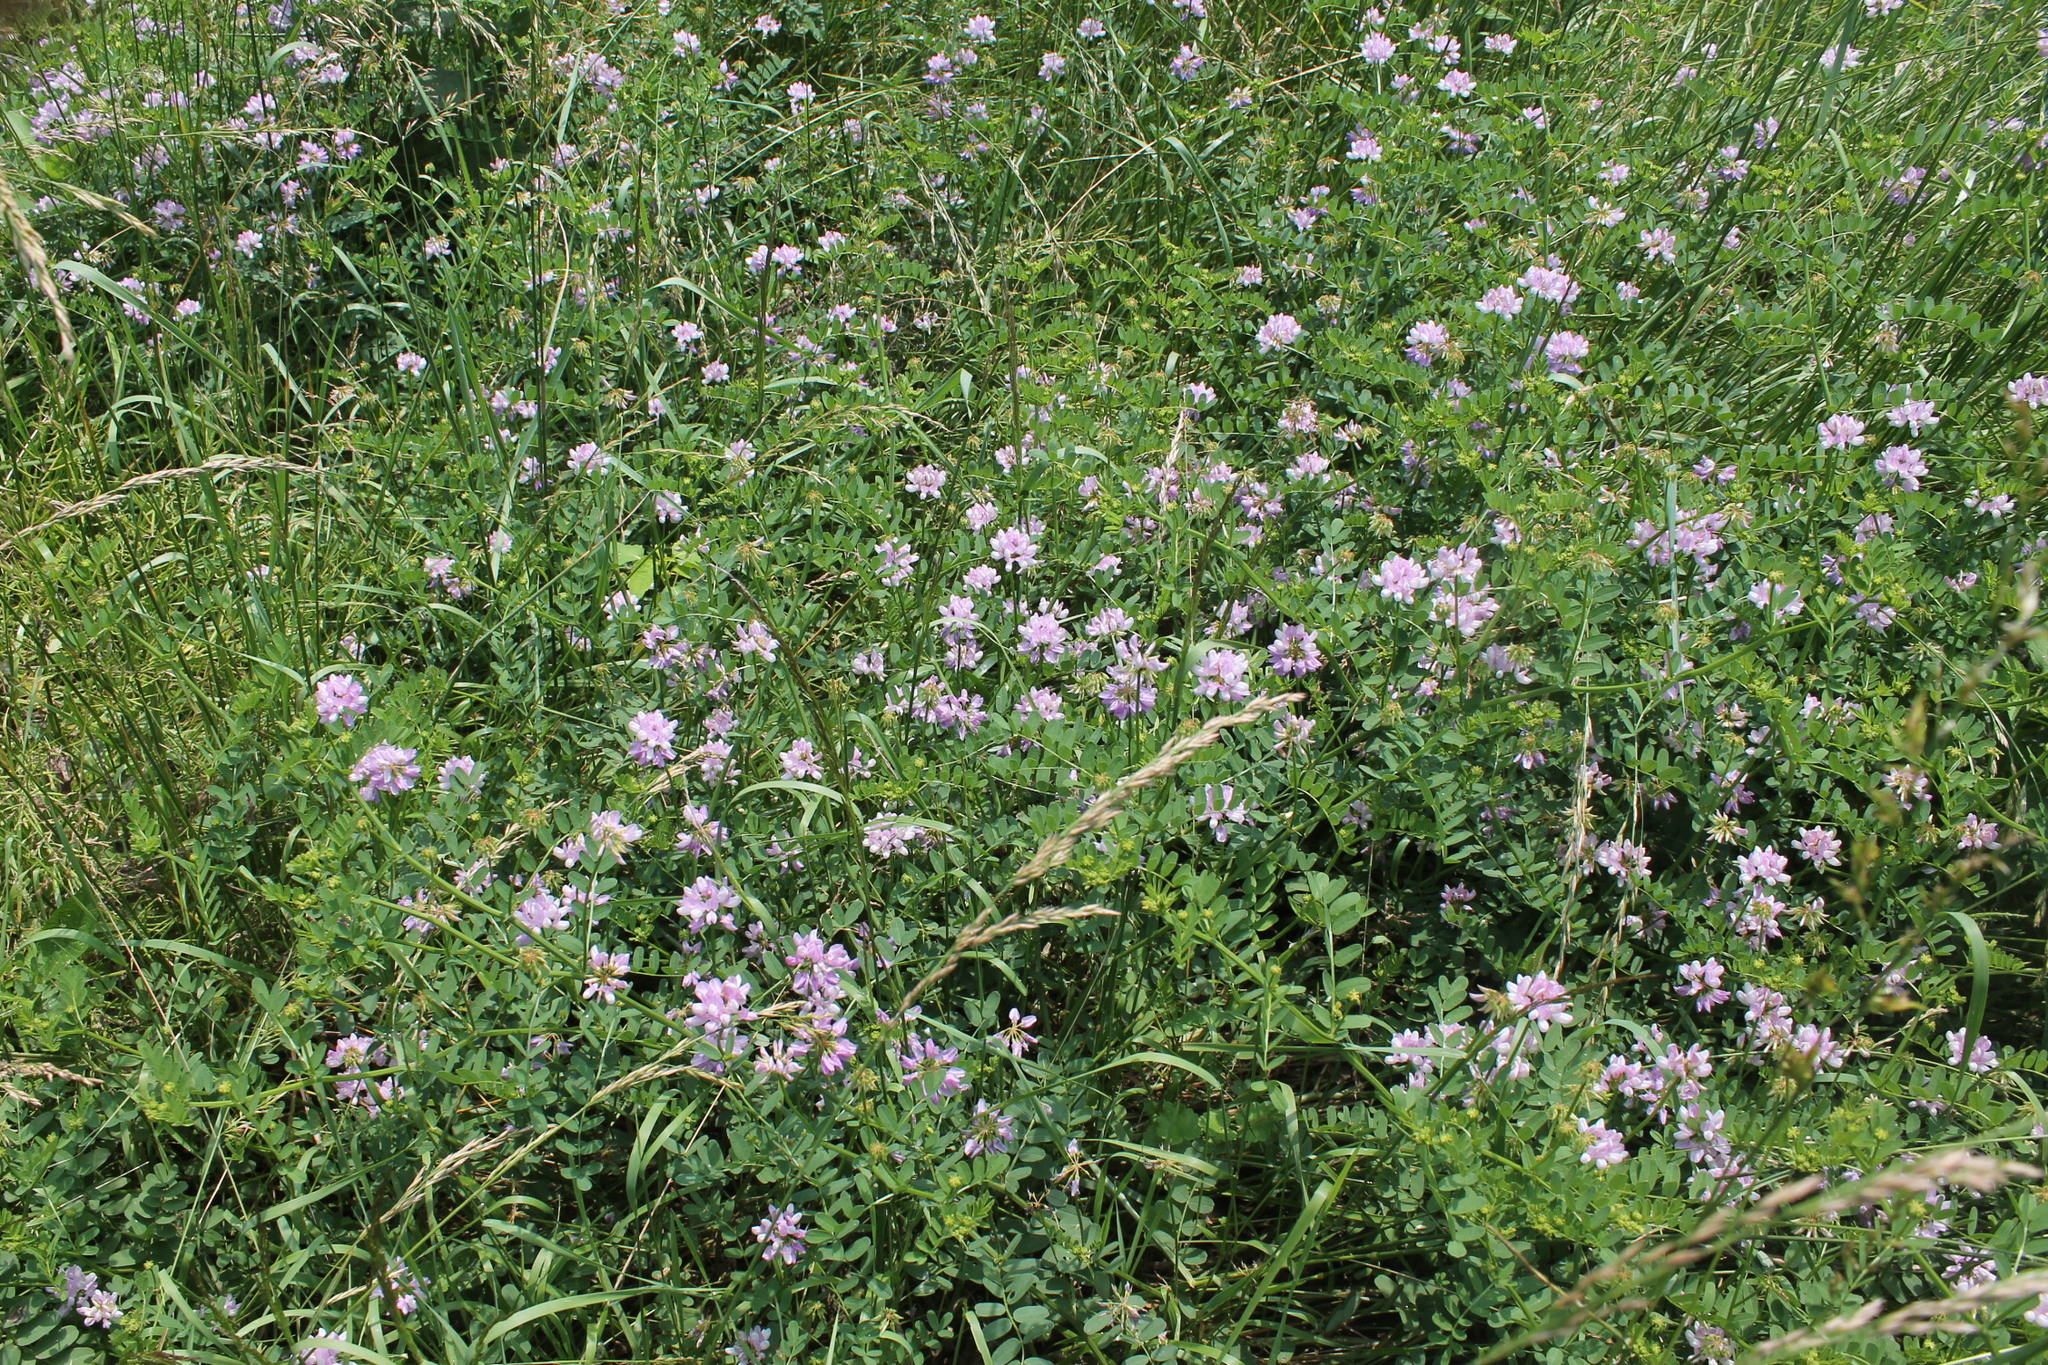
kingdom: Plantae
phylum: Tracheophyta
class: Magnoliopsida
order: Fabales
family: Fabaceae
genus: Coronilla
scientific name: Coronilla varia
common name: Crownvetch
